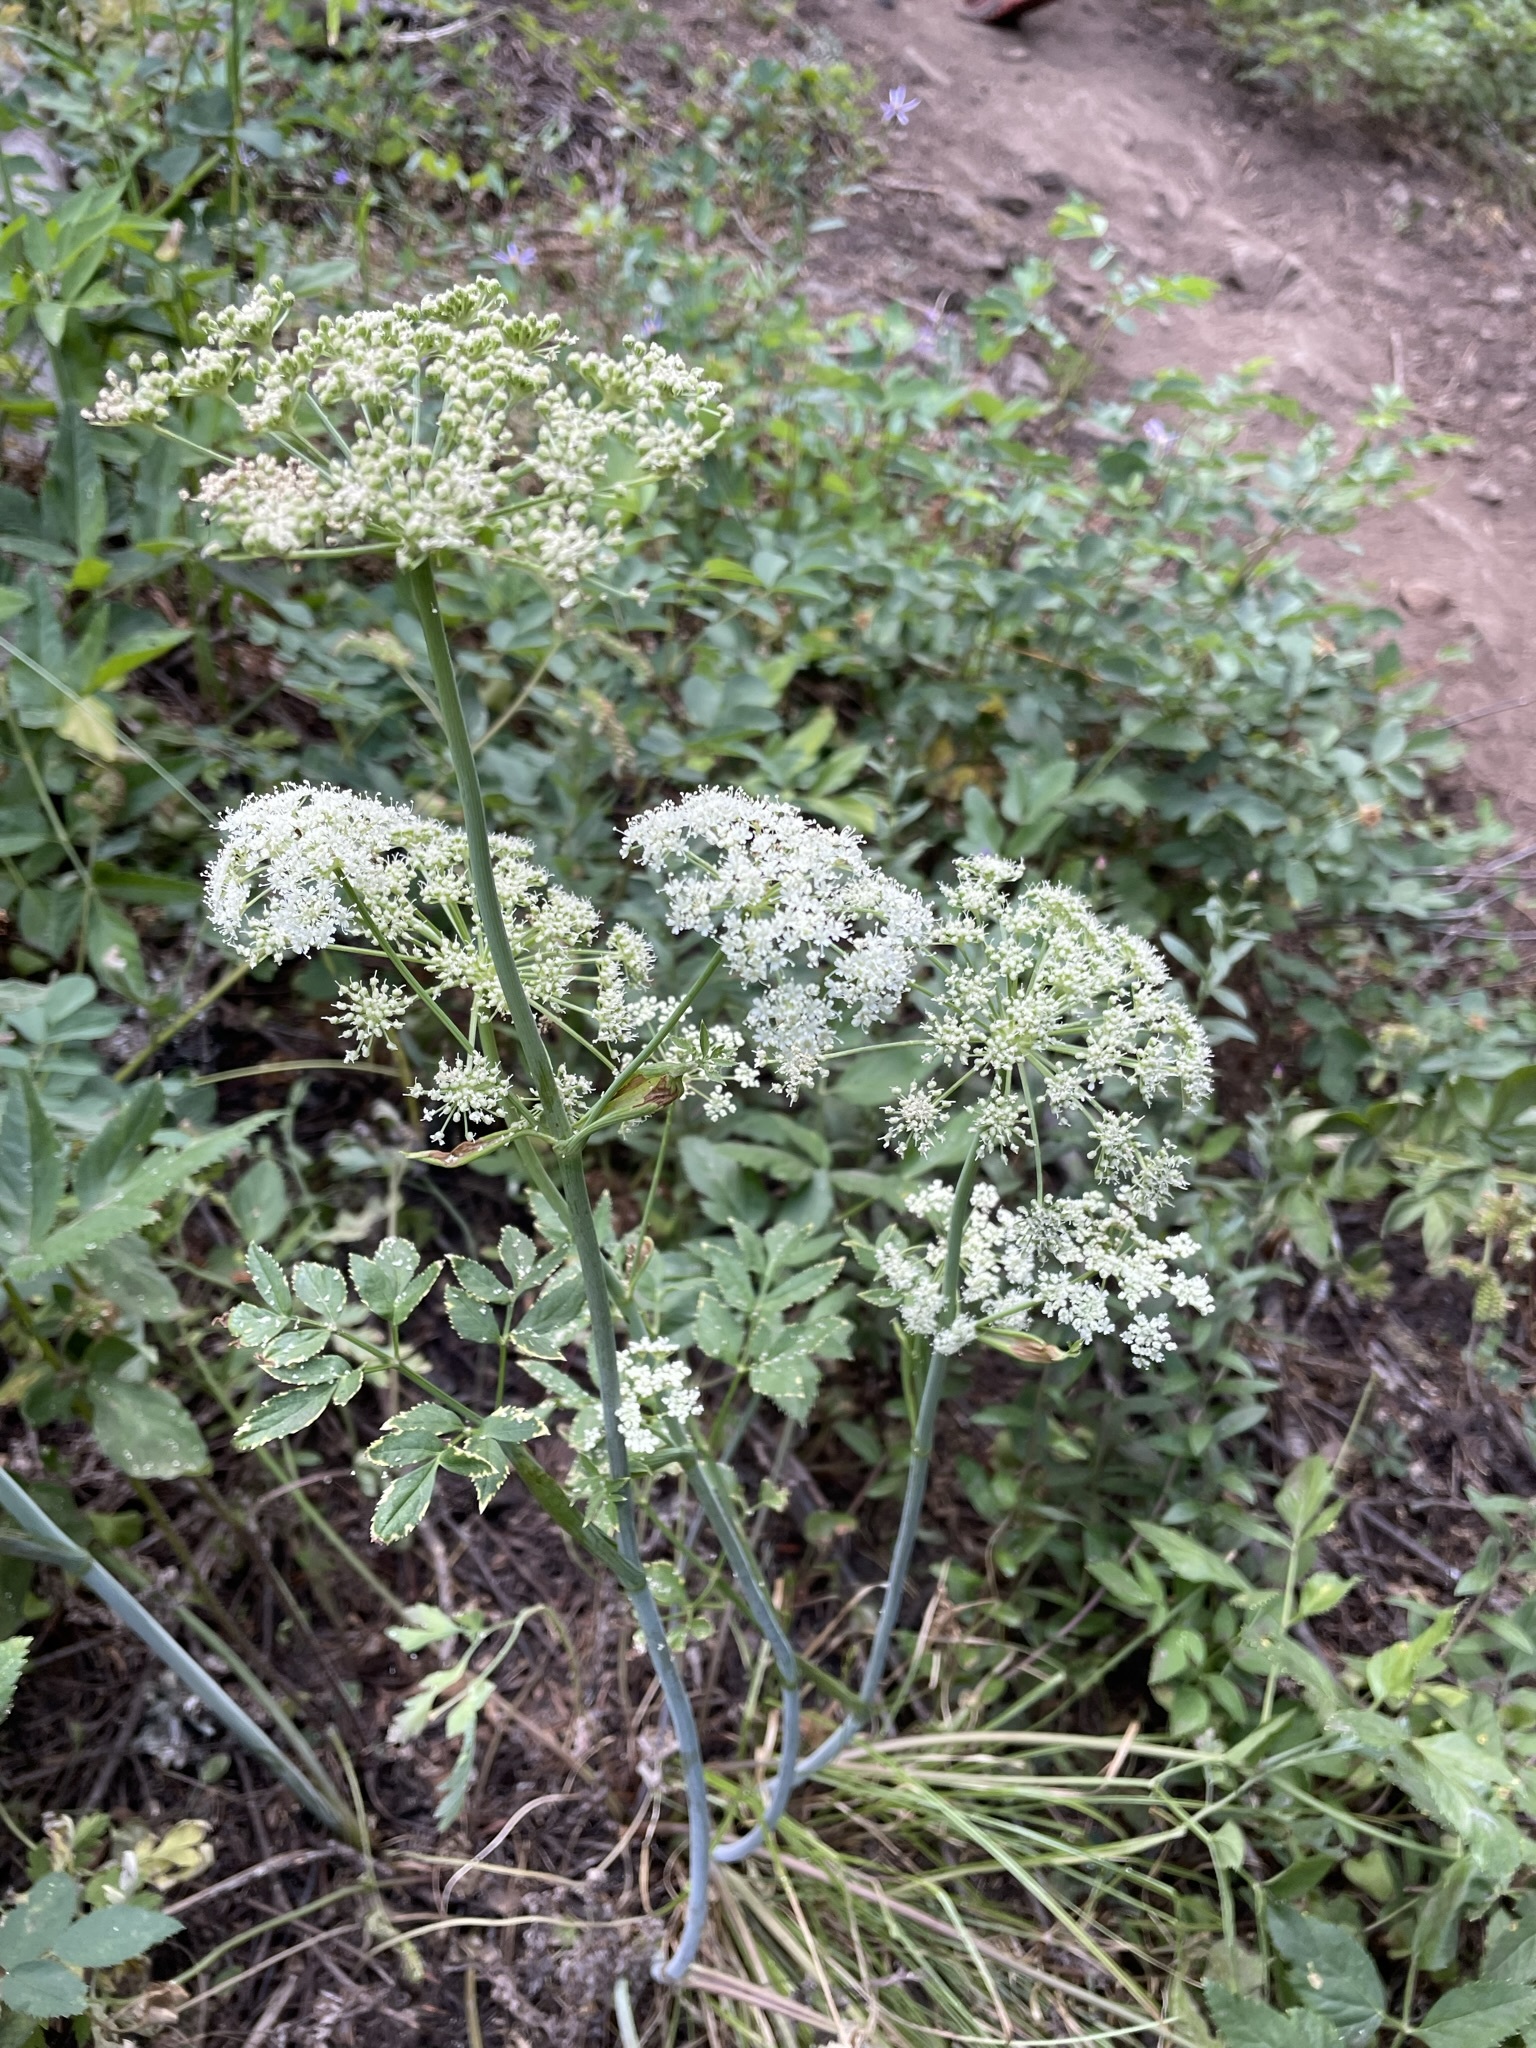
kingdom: Plantae
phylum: Tracheophyta
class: Magnoliopsida
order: Apiales
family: Apiaceae
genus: Angelica
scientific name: Angelica arguta
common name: Lyall's angelica
